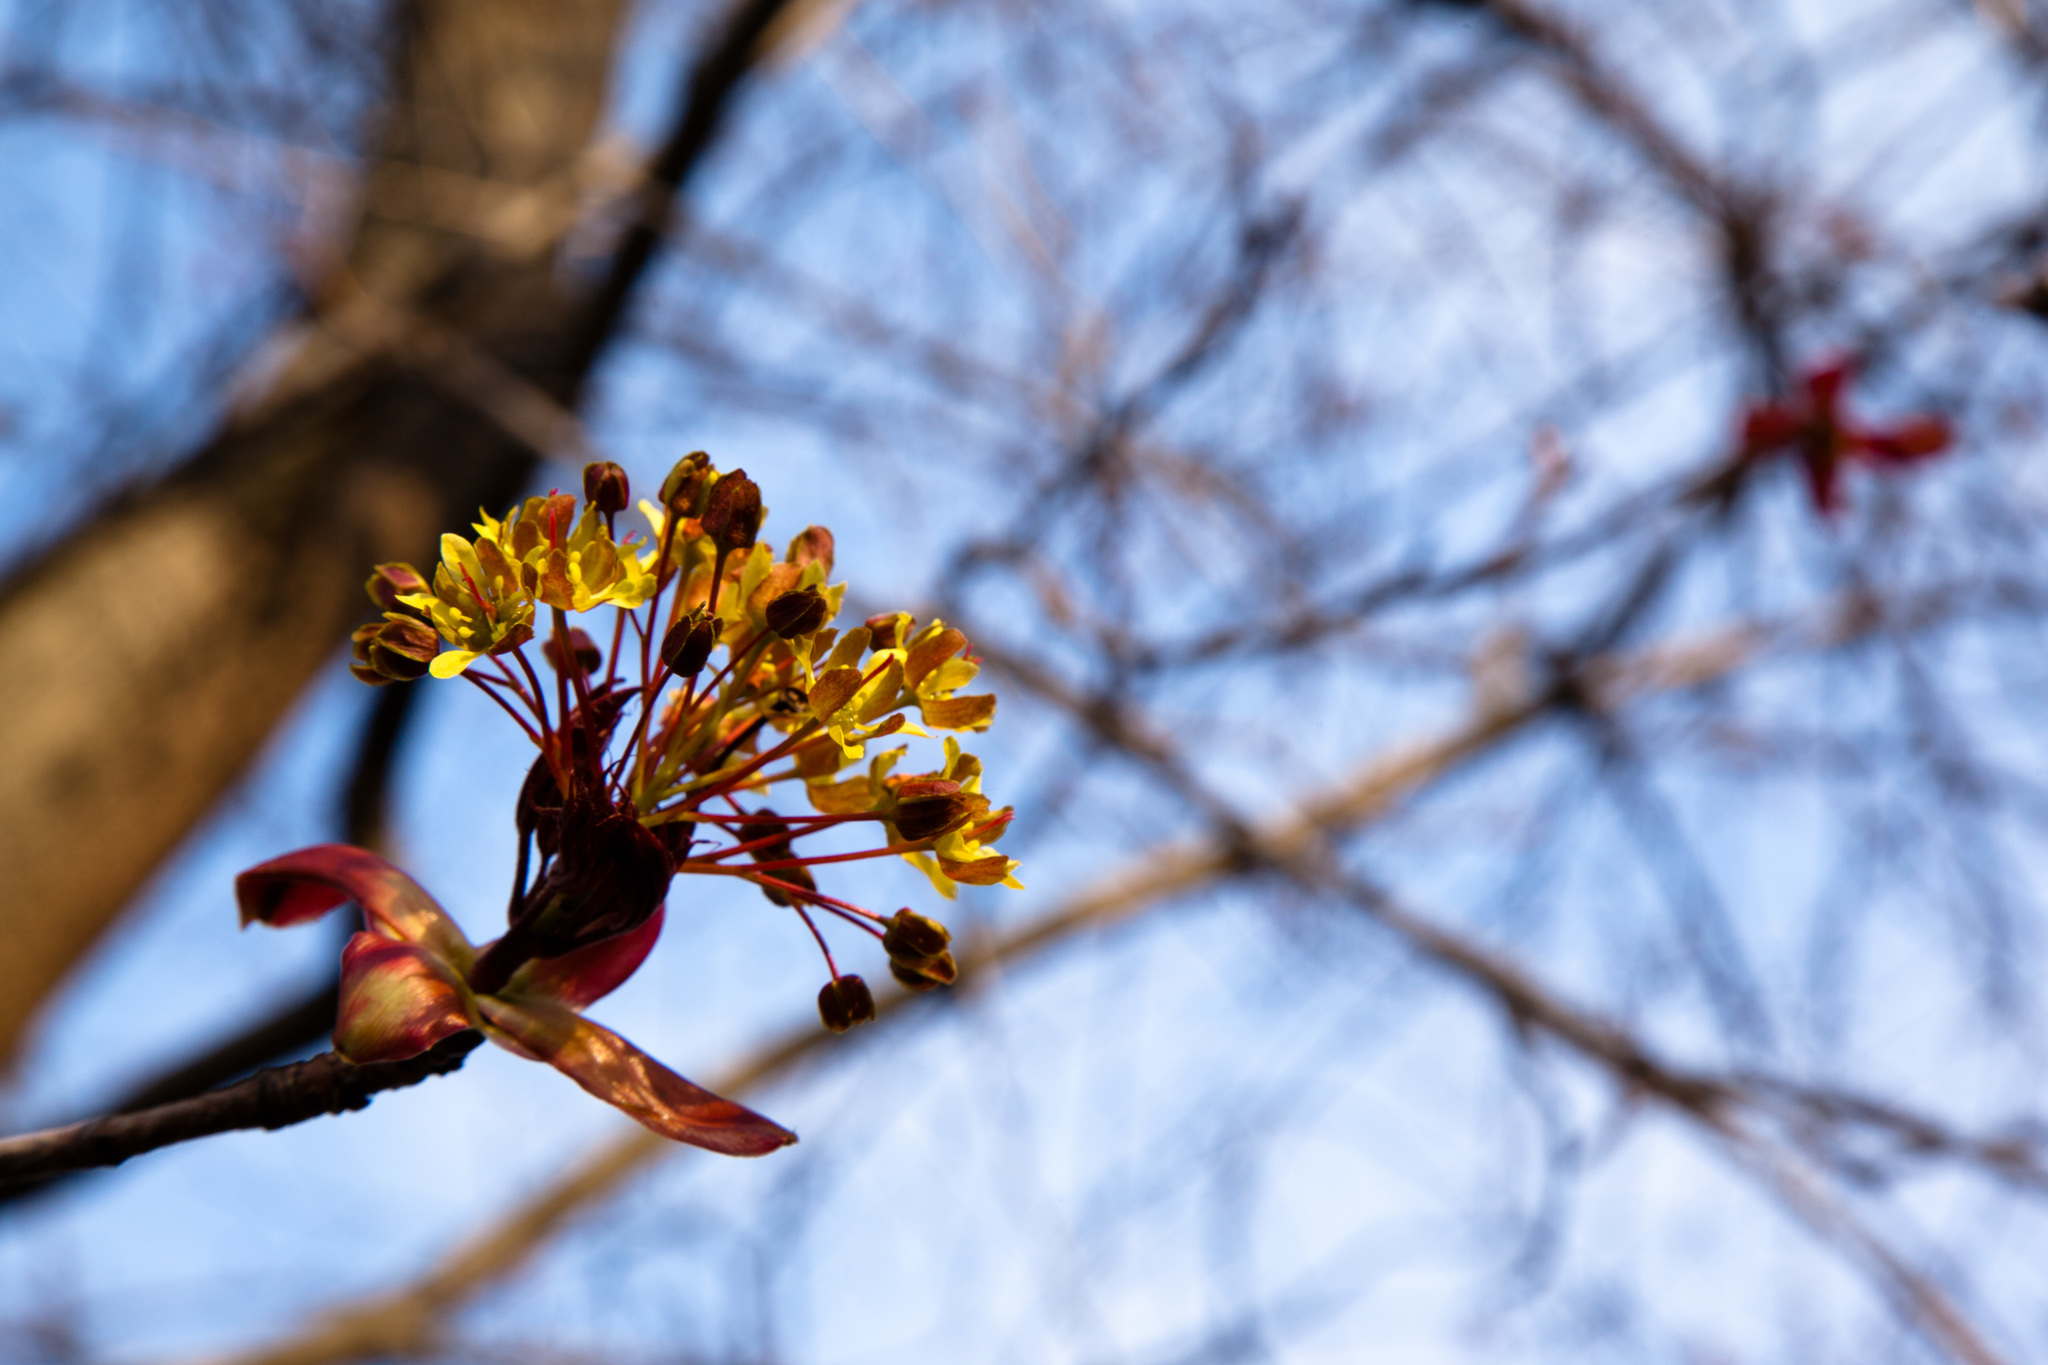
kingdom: Plantae
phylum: Tracheophyta
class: Magnoliopsida
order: Sapindales
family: Sapindaceae
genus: Acer
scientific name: Acer platanoides
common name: Norway maple
